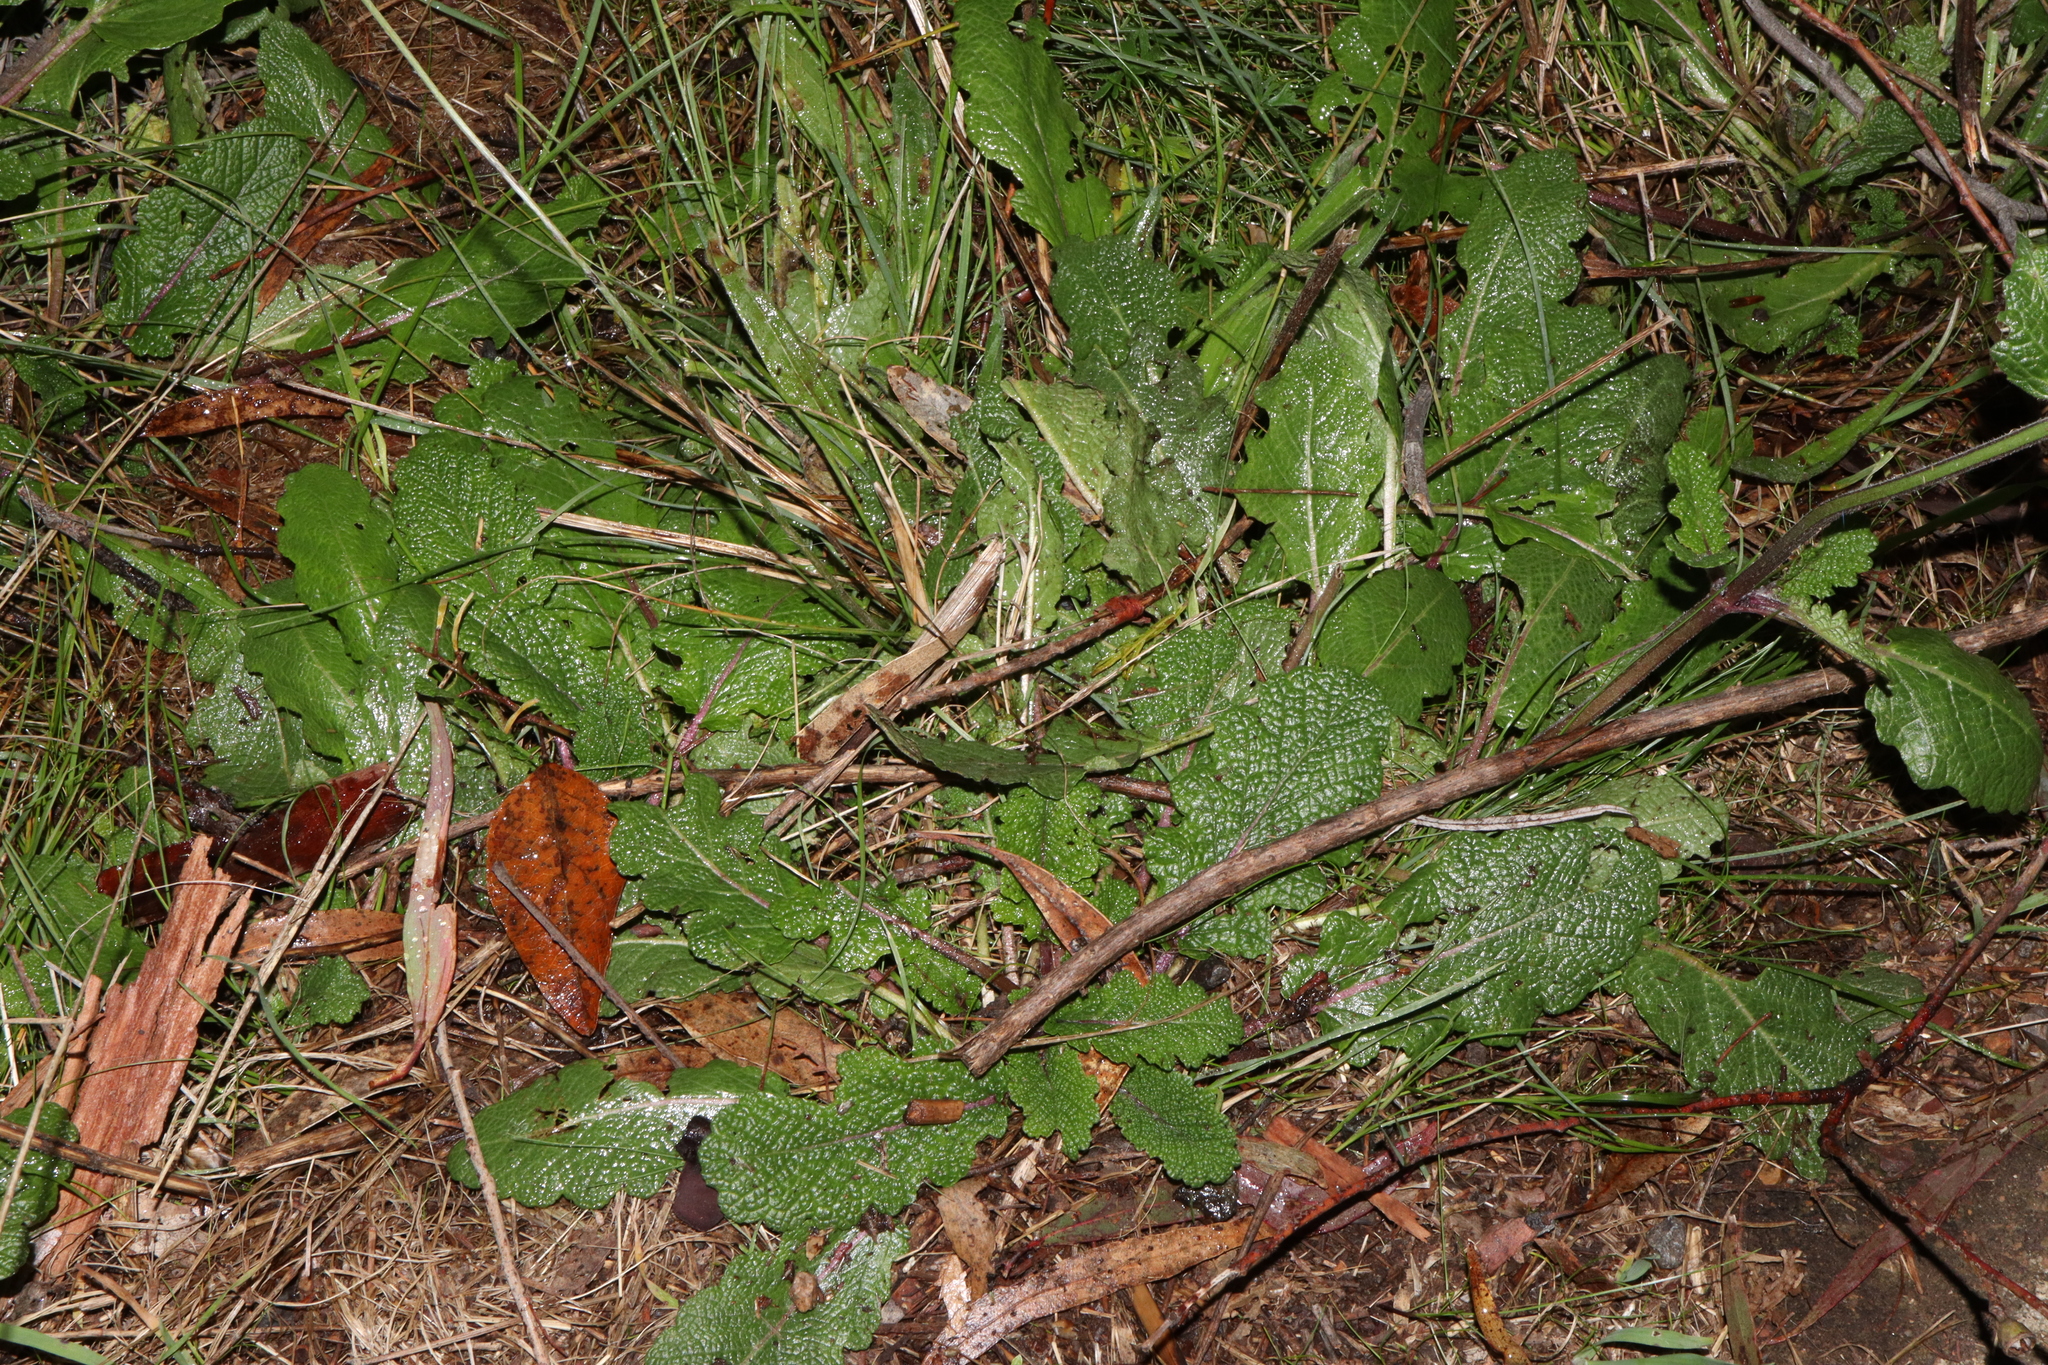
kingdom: Plantae
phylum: Tracheophyta
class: Magnoliopsida
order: Lamiales
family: Lamiaceae
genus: Salvia
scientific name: Salvia verbenaca
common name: Wild clary
